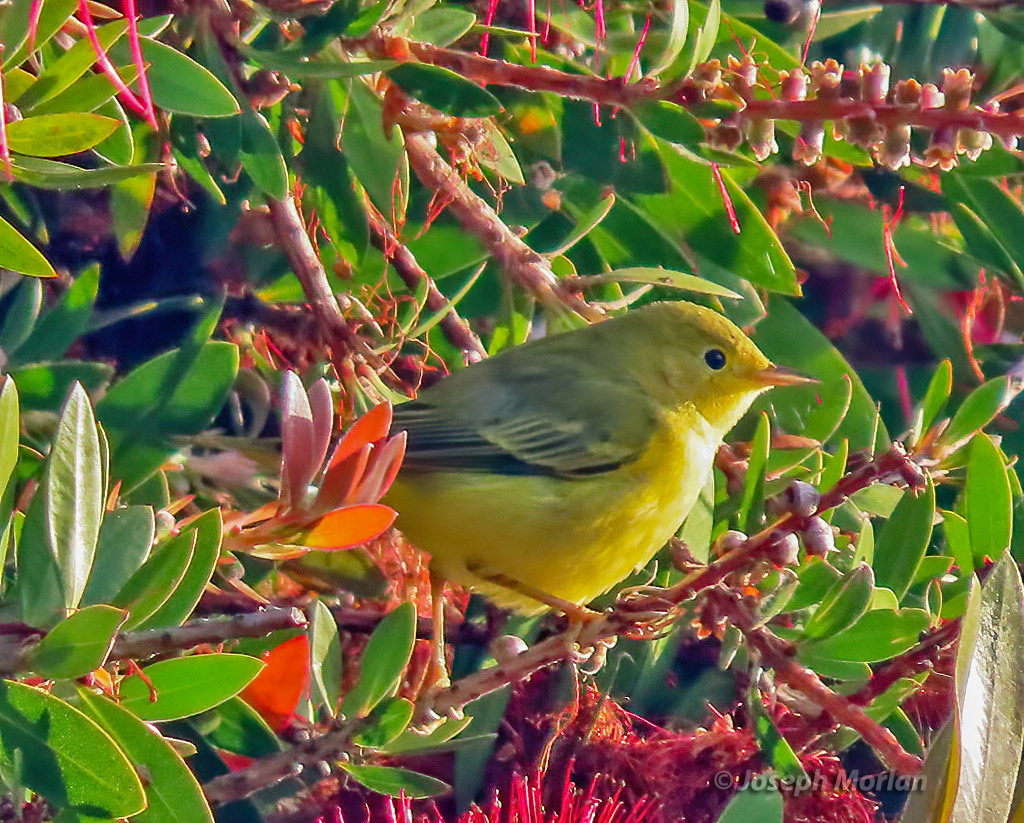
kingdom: Animalia
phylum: Chordata
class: Aves
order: Passeriformes
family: Parulidae
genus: Setophaga
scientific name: Setophaga petechia
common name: Yellow warbler
